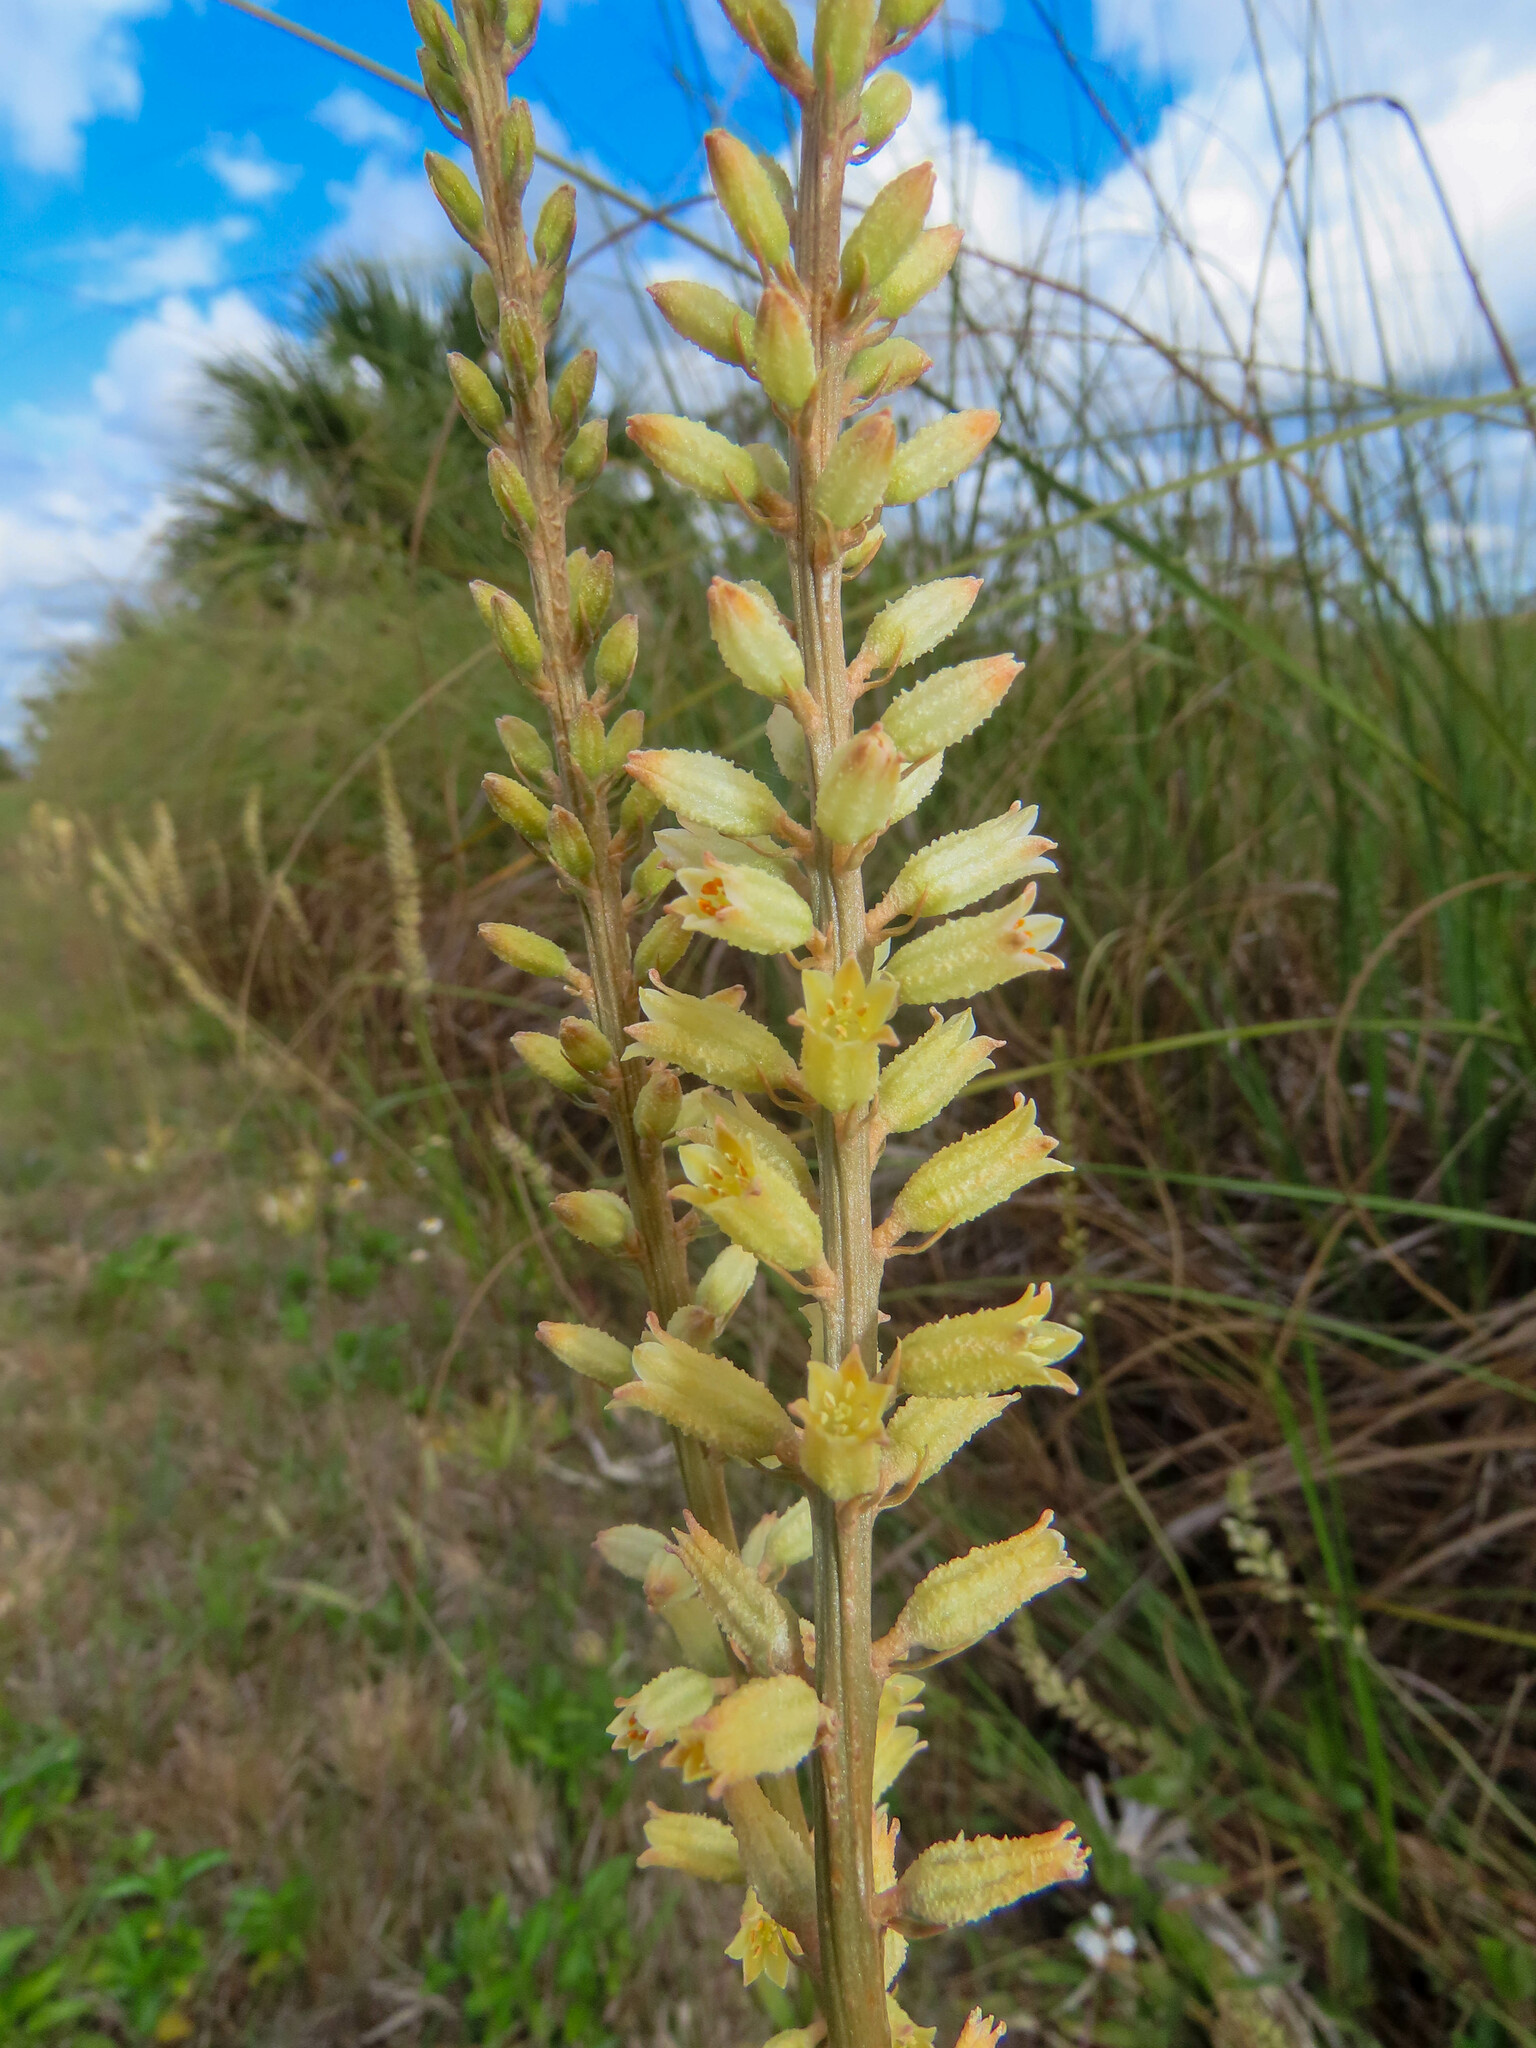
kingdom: Plantae
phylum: Tracheophyta
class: Liliopsida
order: Dioscoreales
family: Nartheciaceae
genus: Aletris
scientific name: Aletris bracteata
